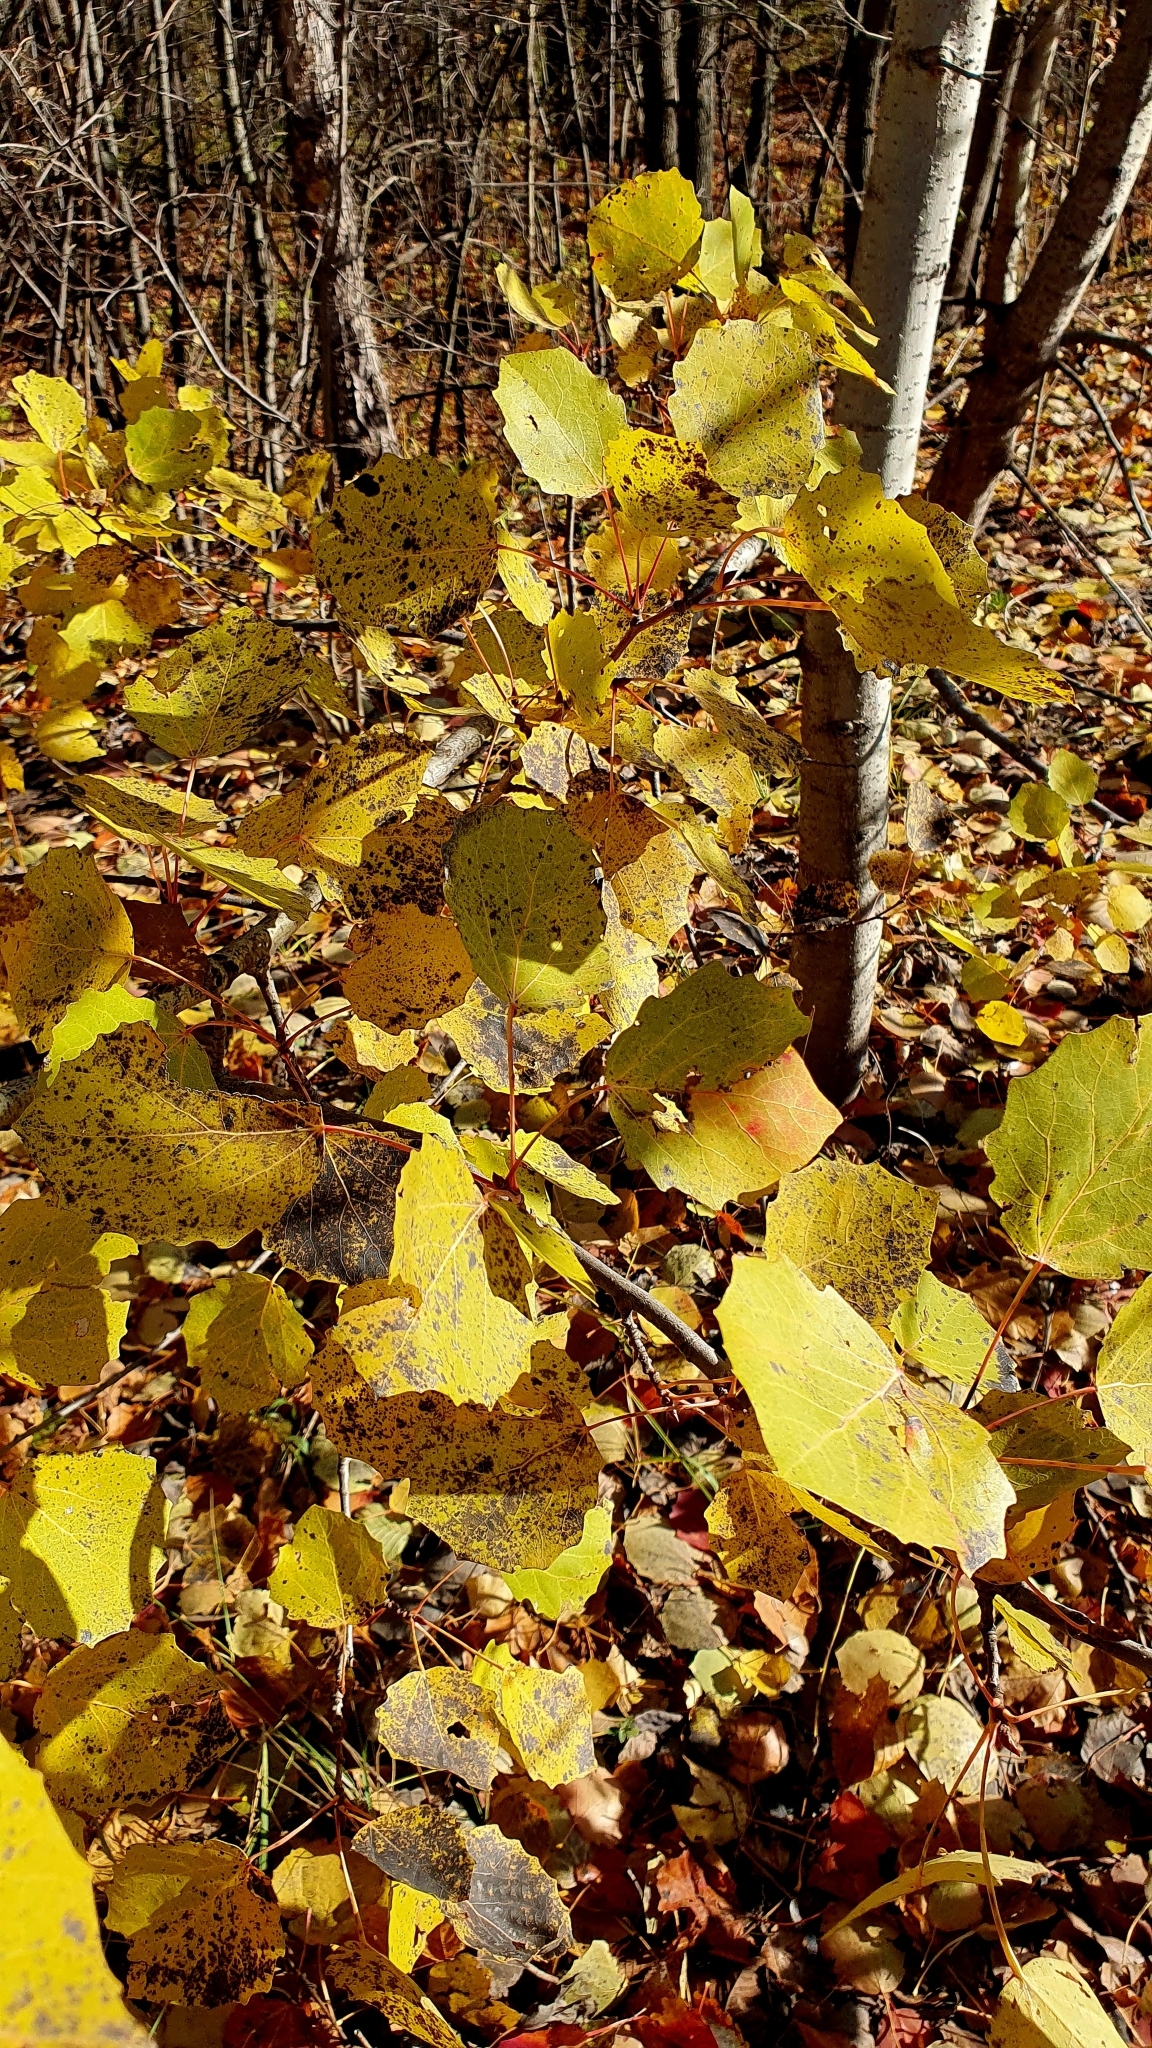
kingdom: Plantae
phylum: Tracheophyta
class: Magnoliopsida
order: Malpighiales
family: Salicaceae
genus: Populus
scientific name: Populus tremula
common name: European aspen
